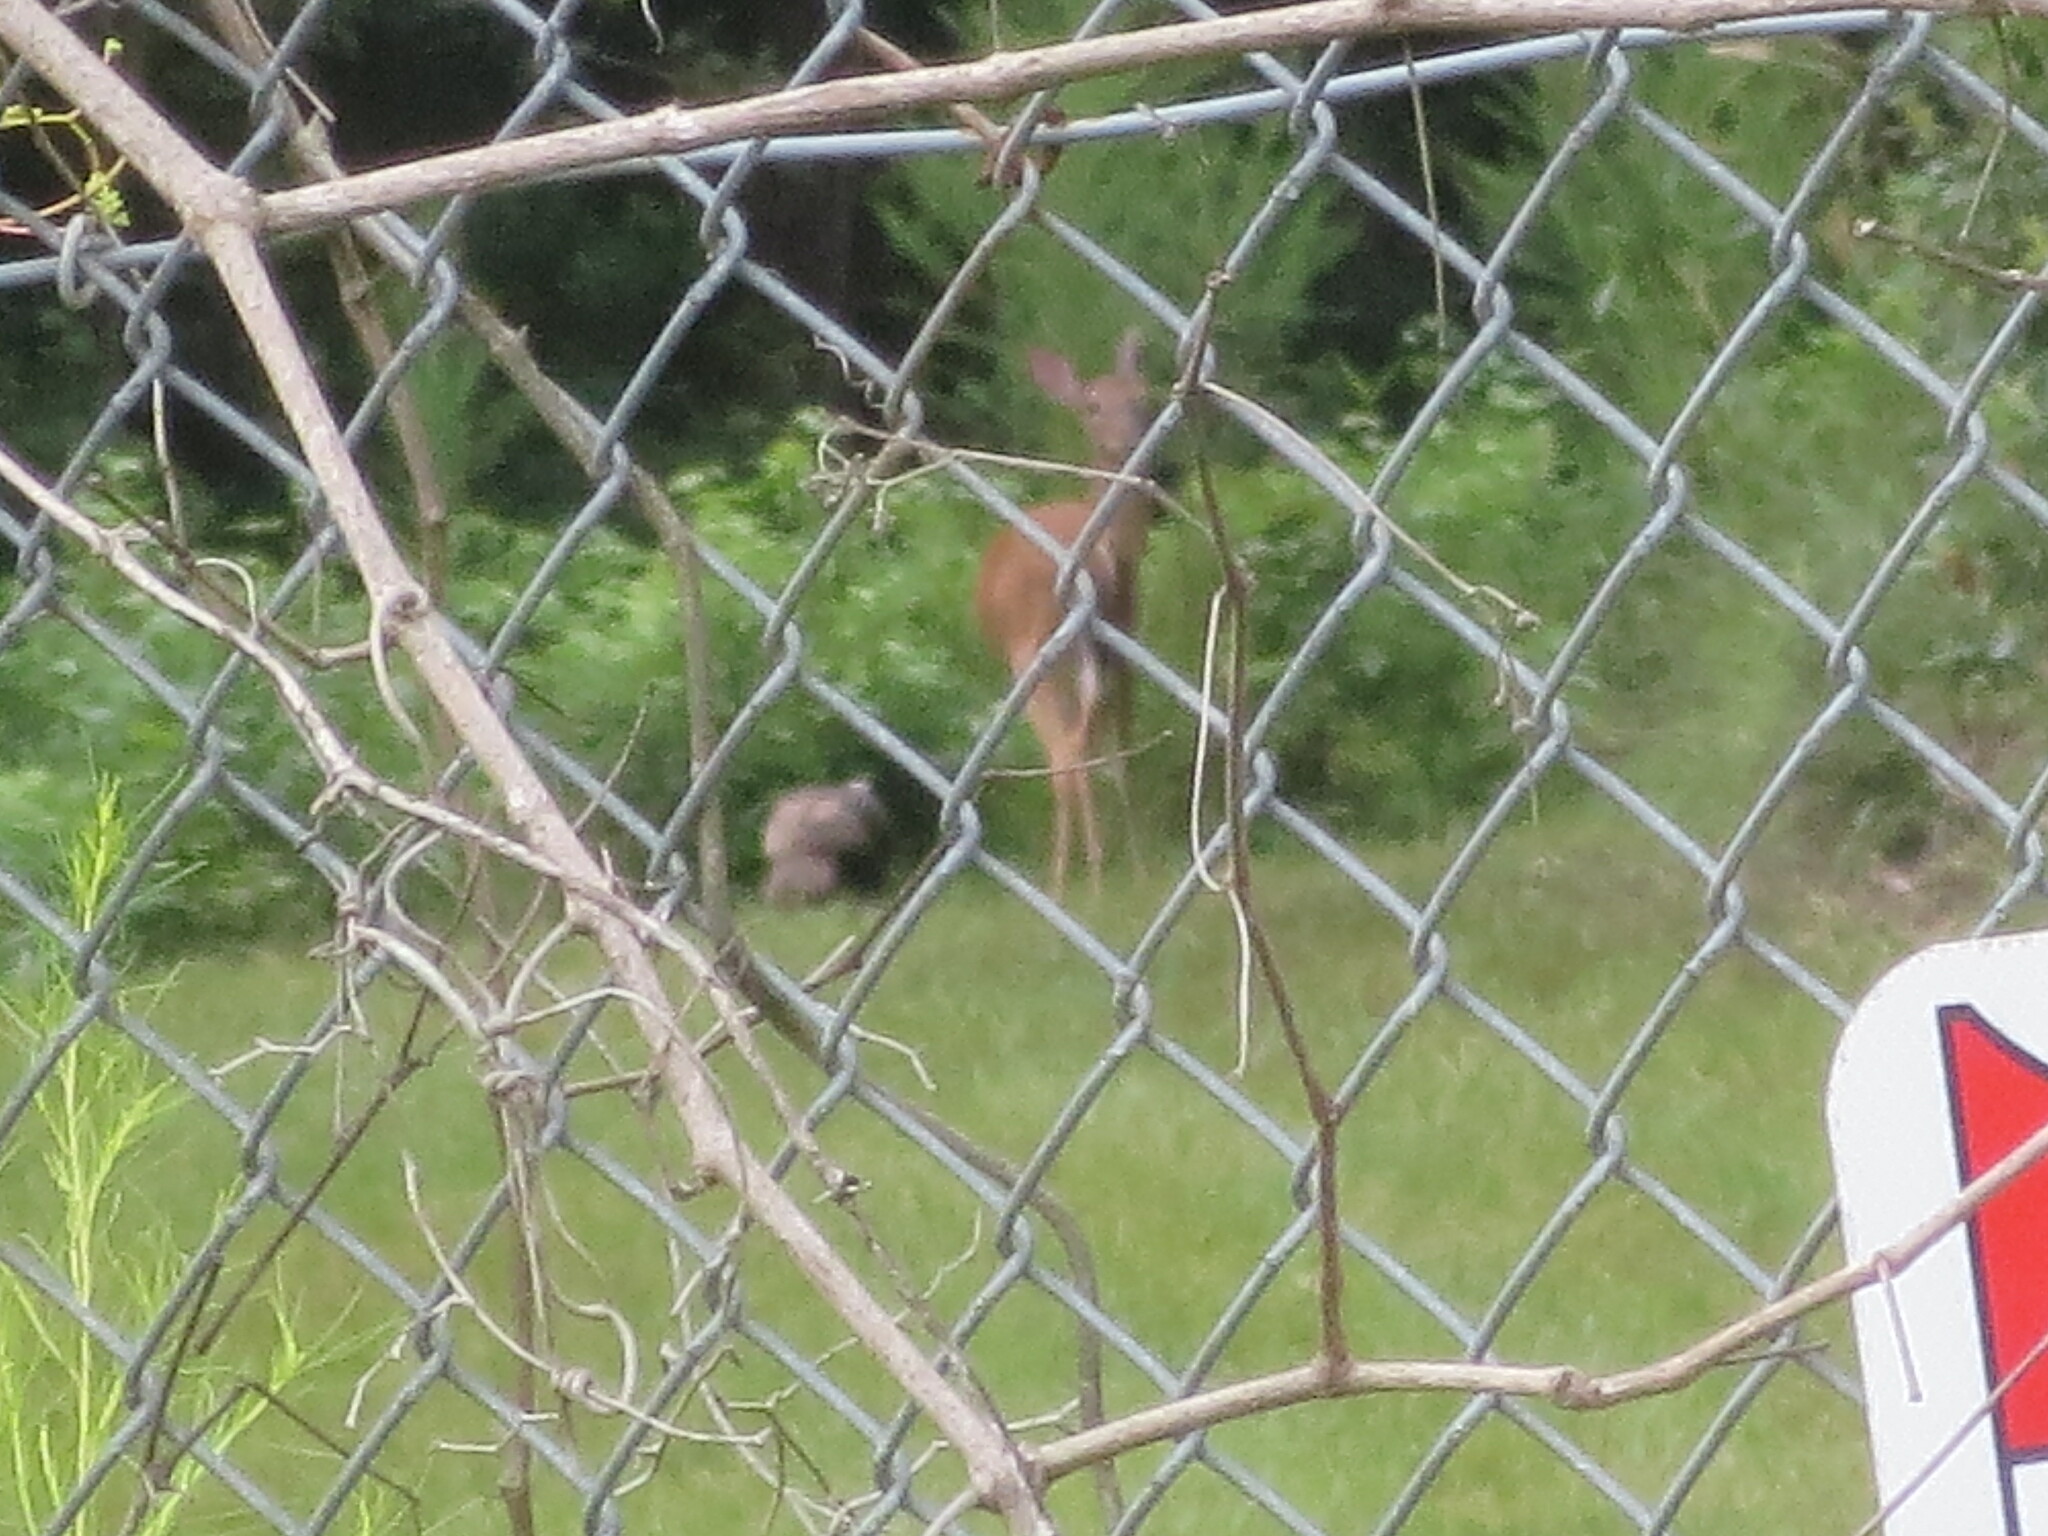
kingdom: Animalia
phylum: Chordata
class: Aves
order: Galliformes
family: Phasianidae
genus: Meleagris
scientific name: Meleagris gallopavo
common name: Wild turkey
